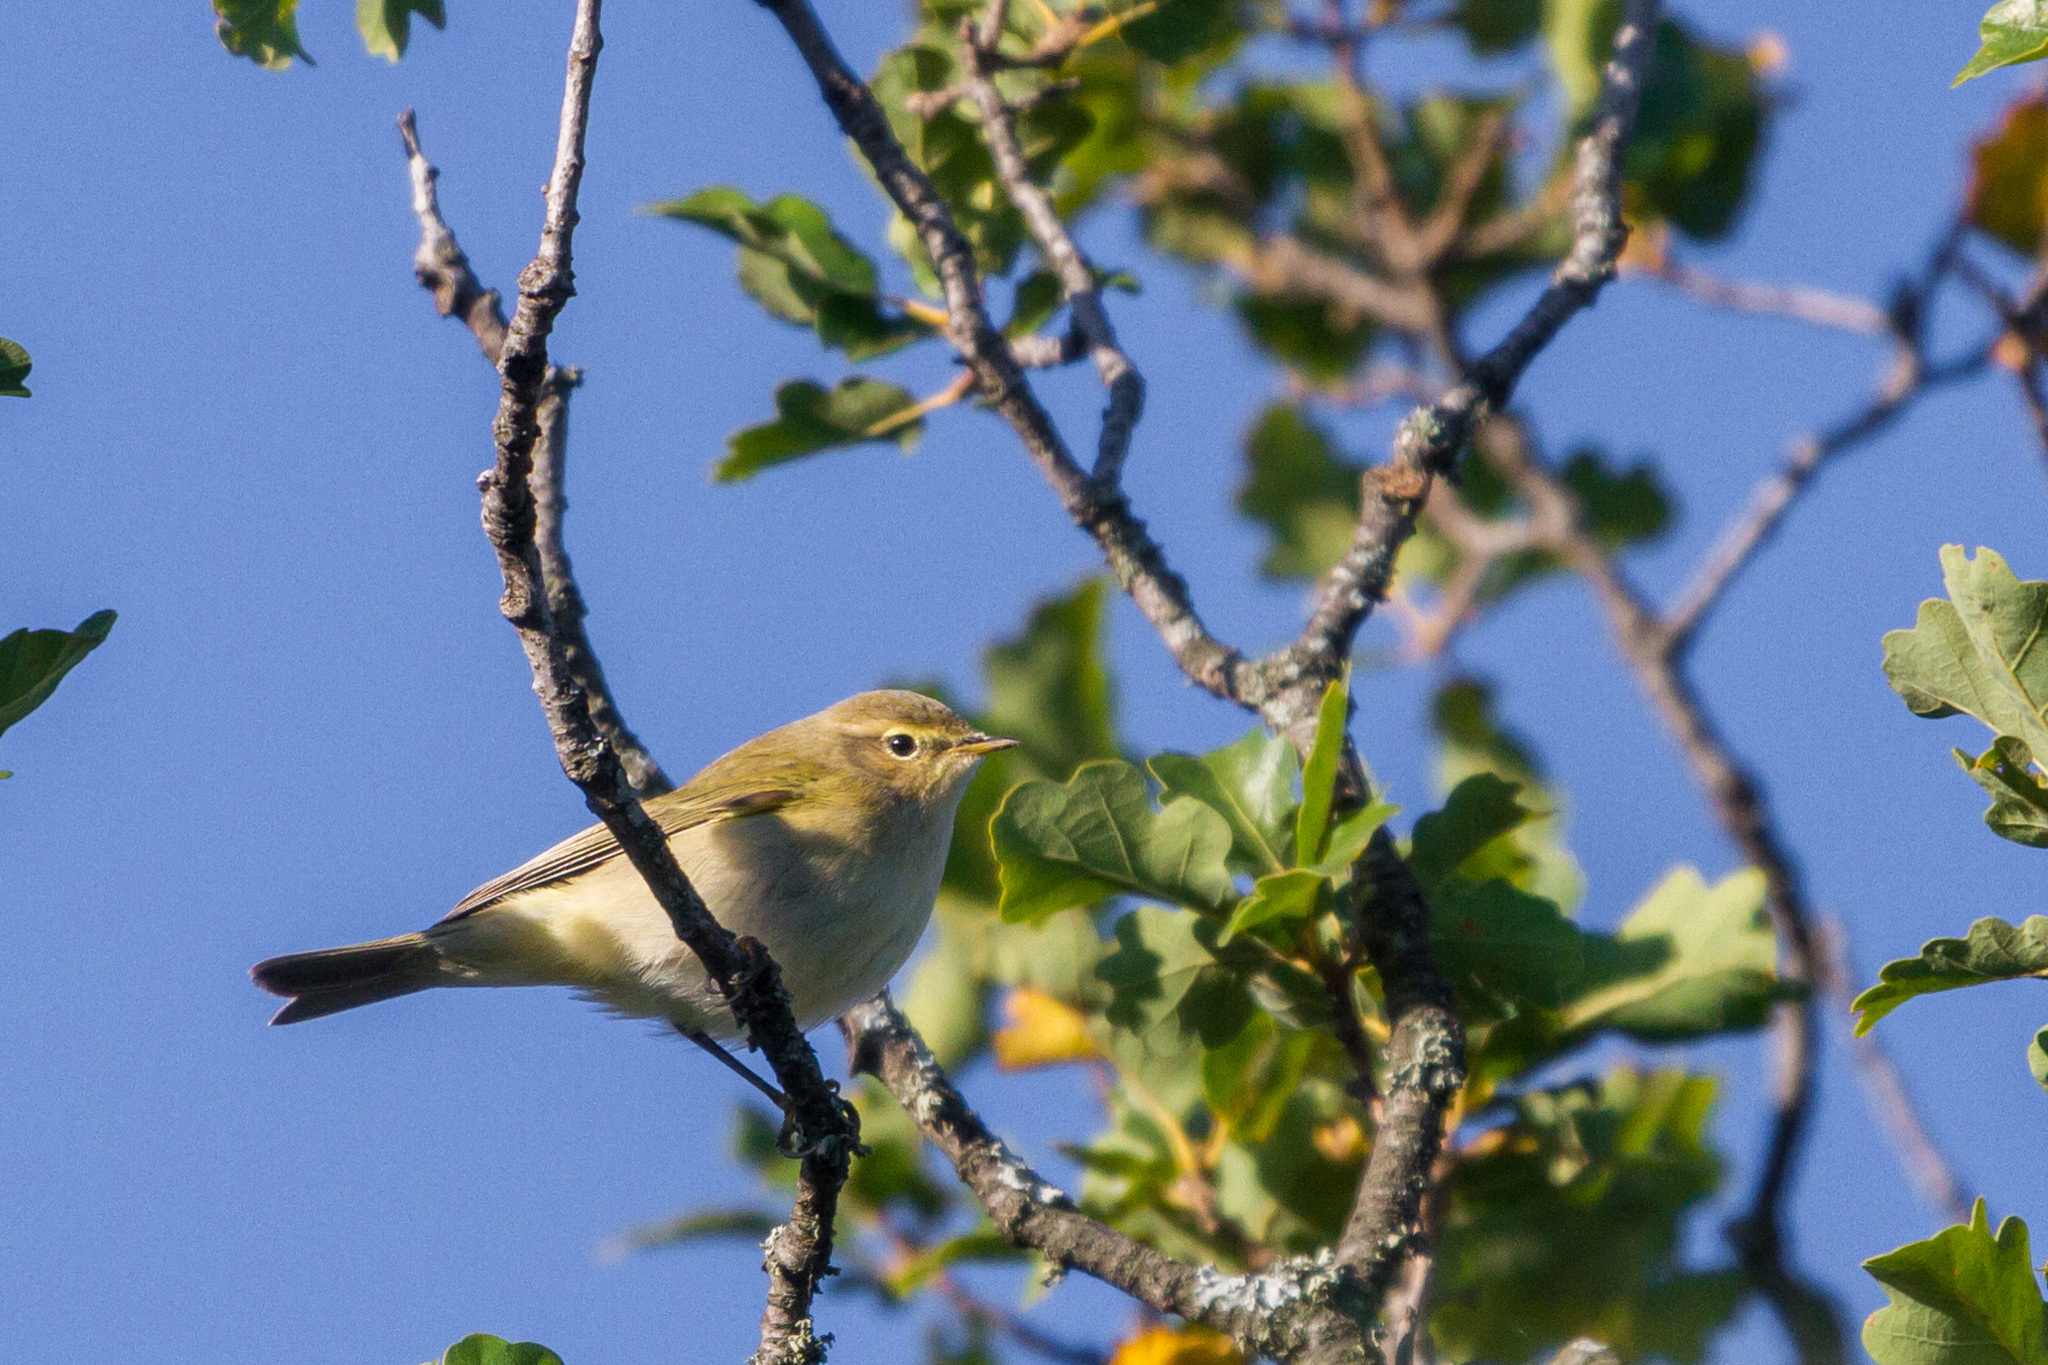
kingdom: Animalia
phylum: Chordata
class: Aves
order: Passeriformes
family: Phylloscopidae
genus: Phylloscopus
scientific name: Phylloscopus collybita
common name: Common chiffchaff
